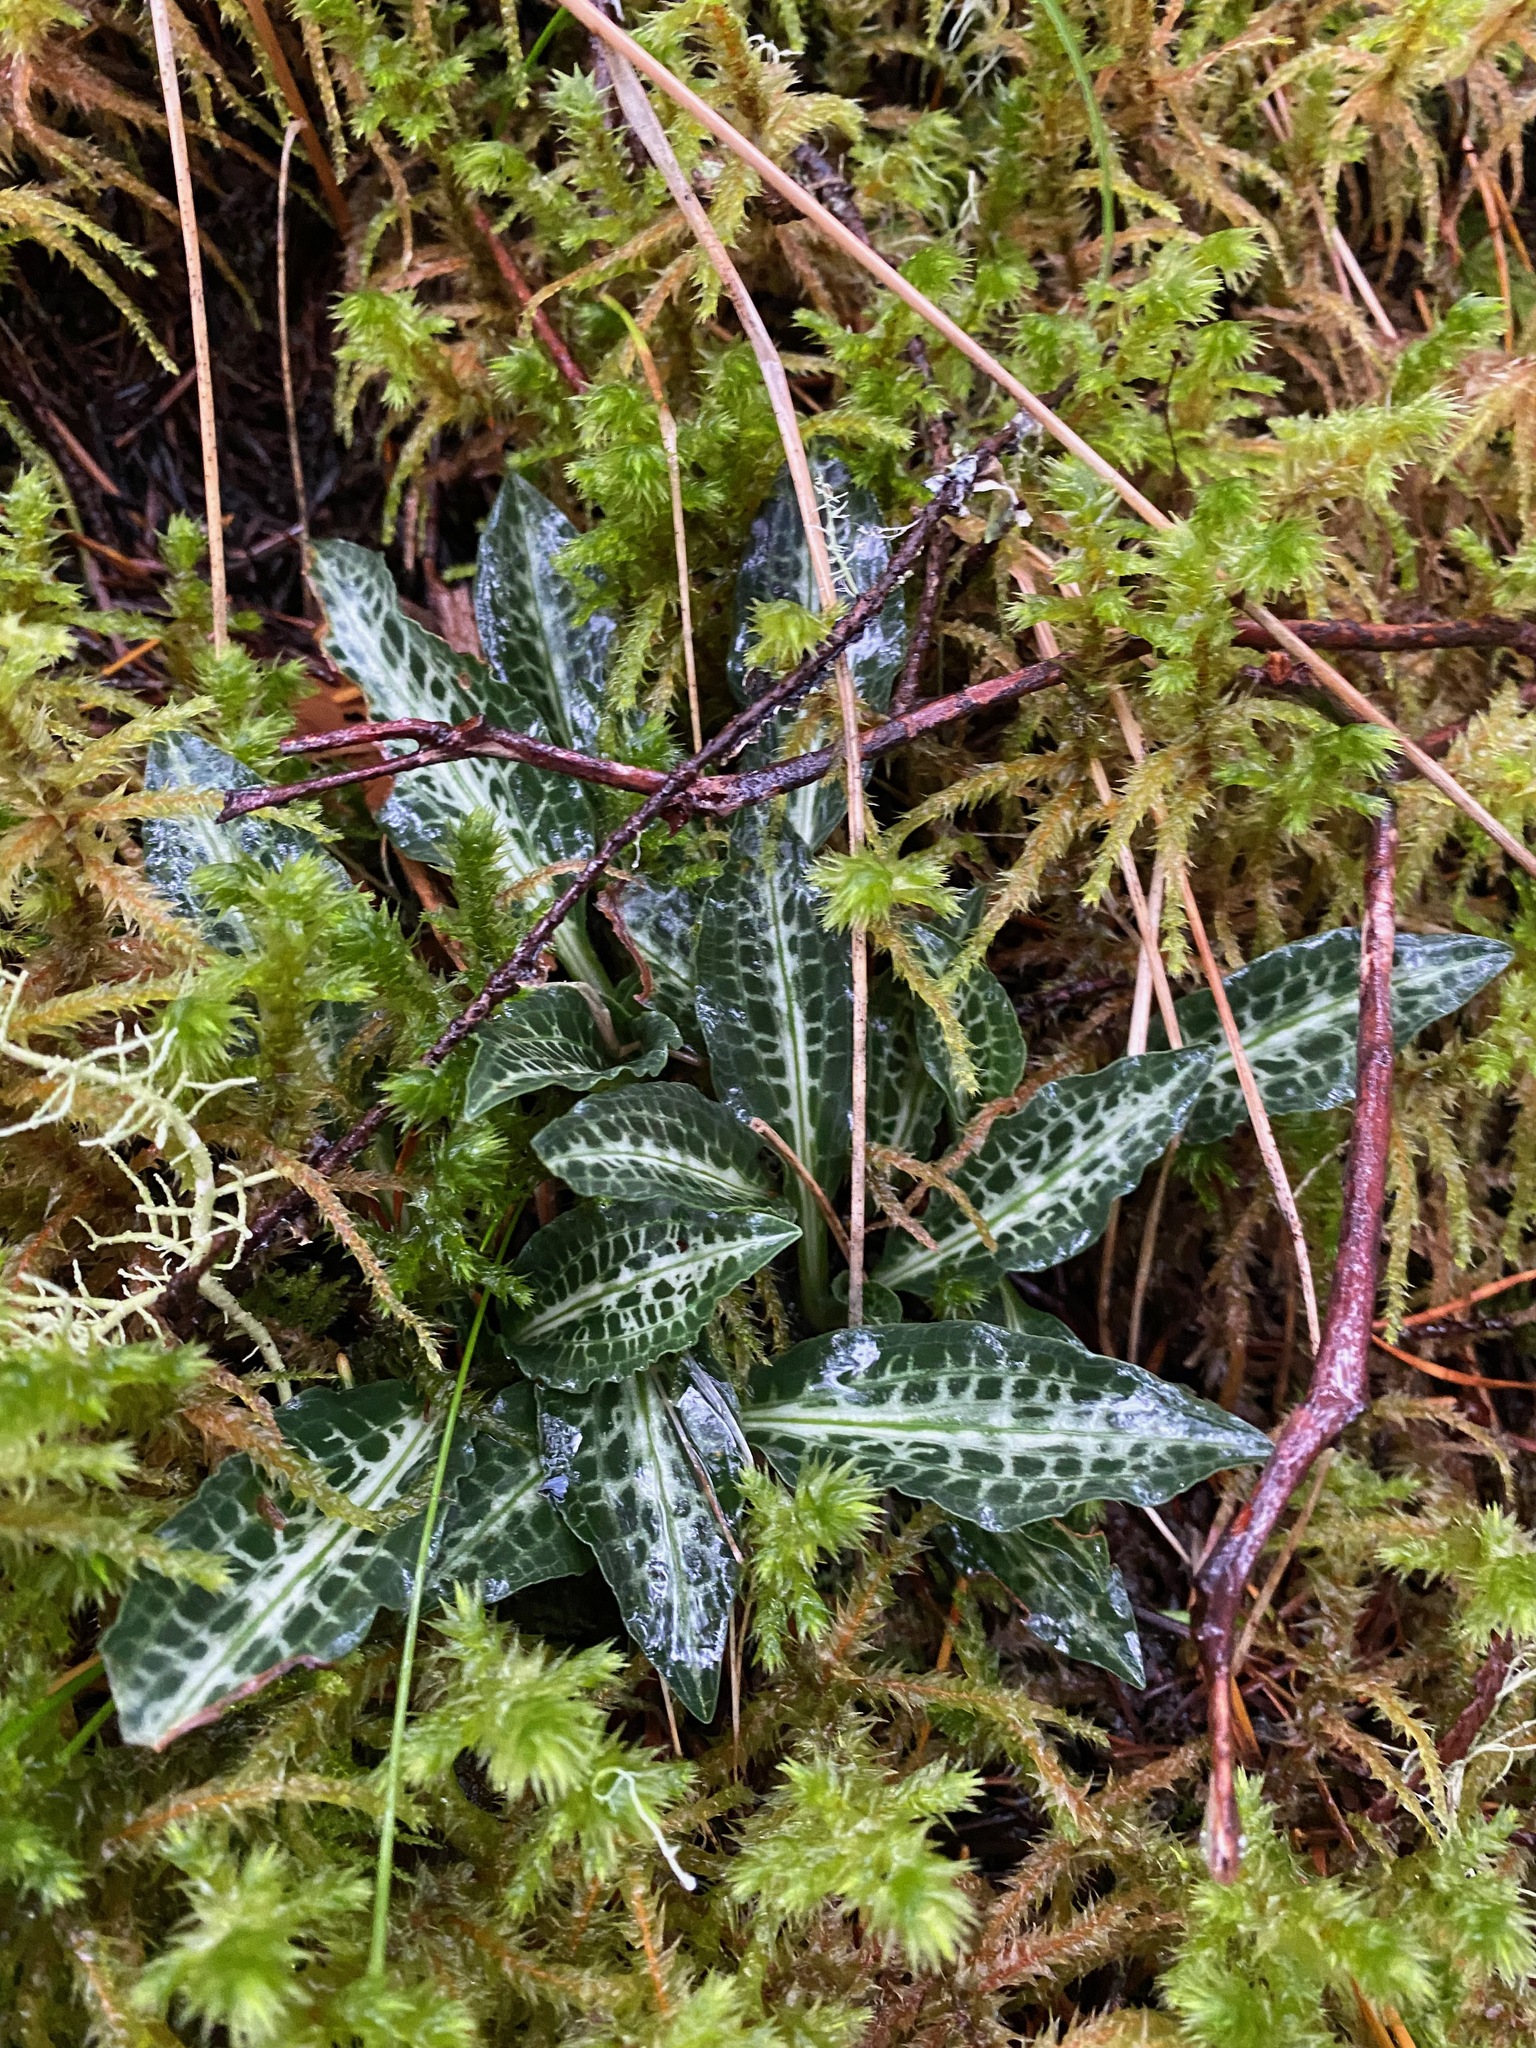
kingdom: Plantae
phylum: Tracheophyta
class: Liliopsida
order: Asparagales
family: Orchidaceae
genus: Goodyera
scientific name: Goodyera oblongifolia
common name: Giant rattlesnake-plantain
